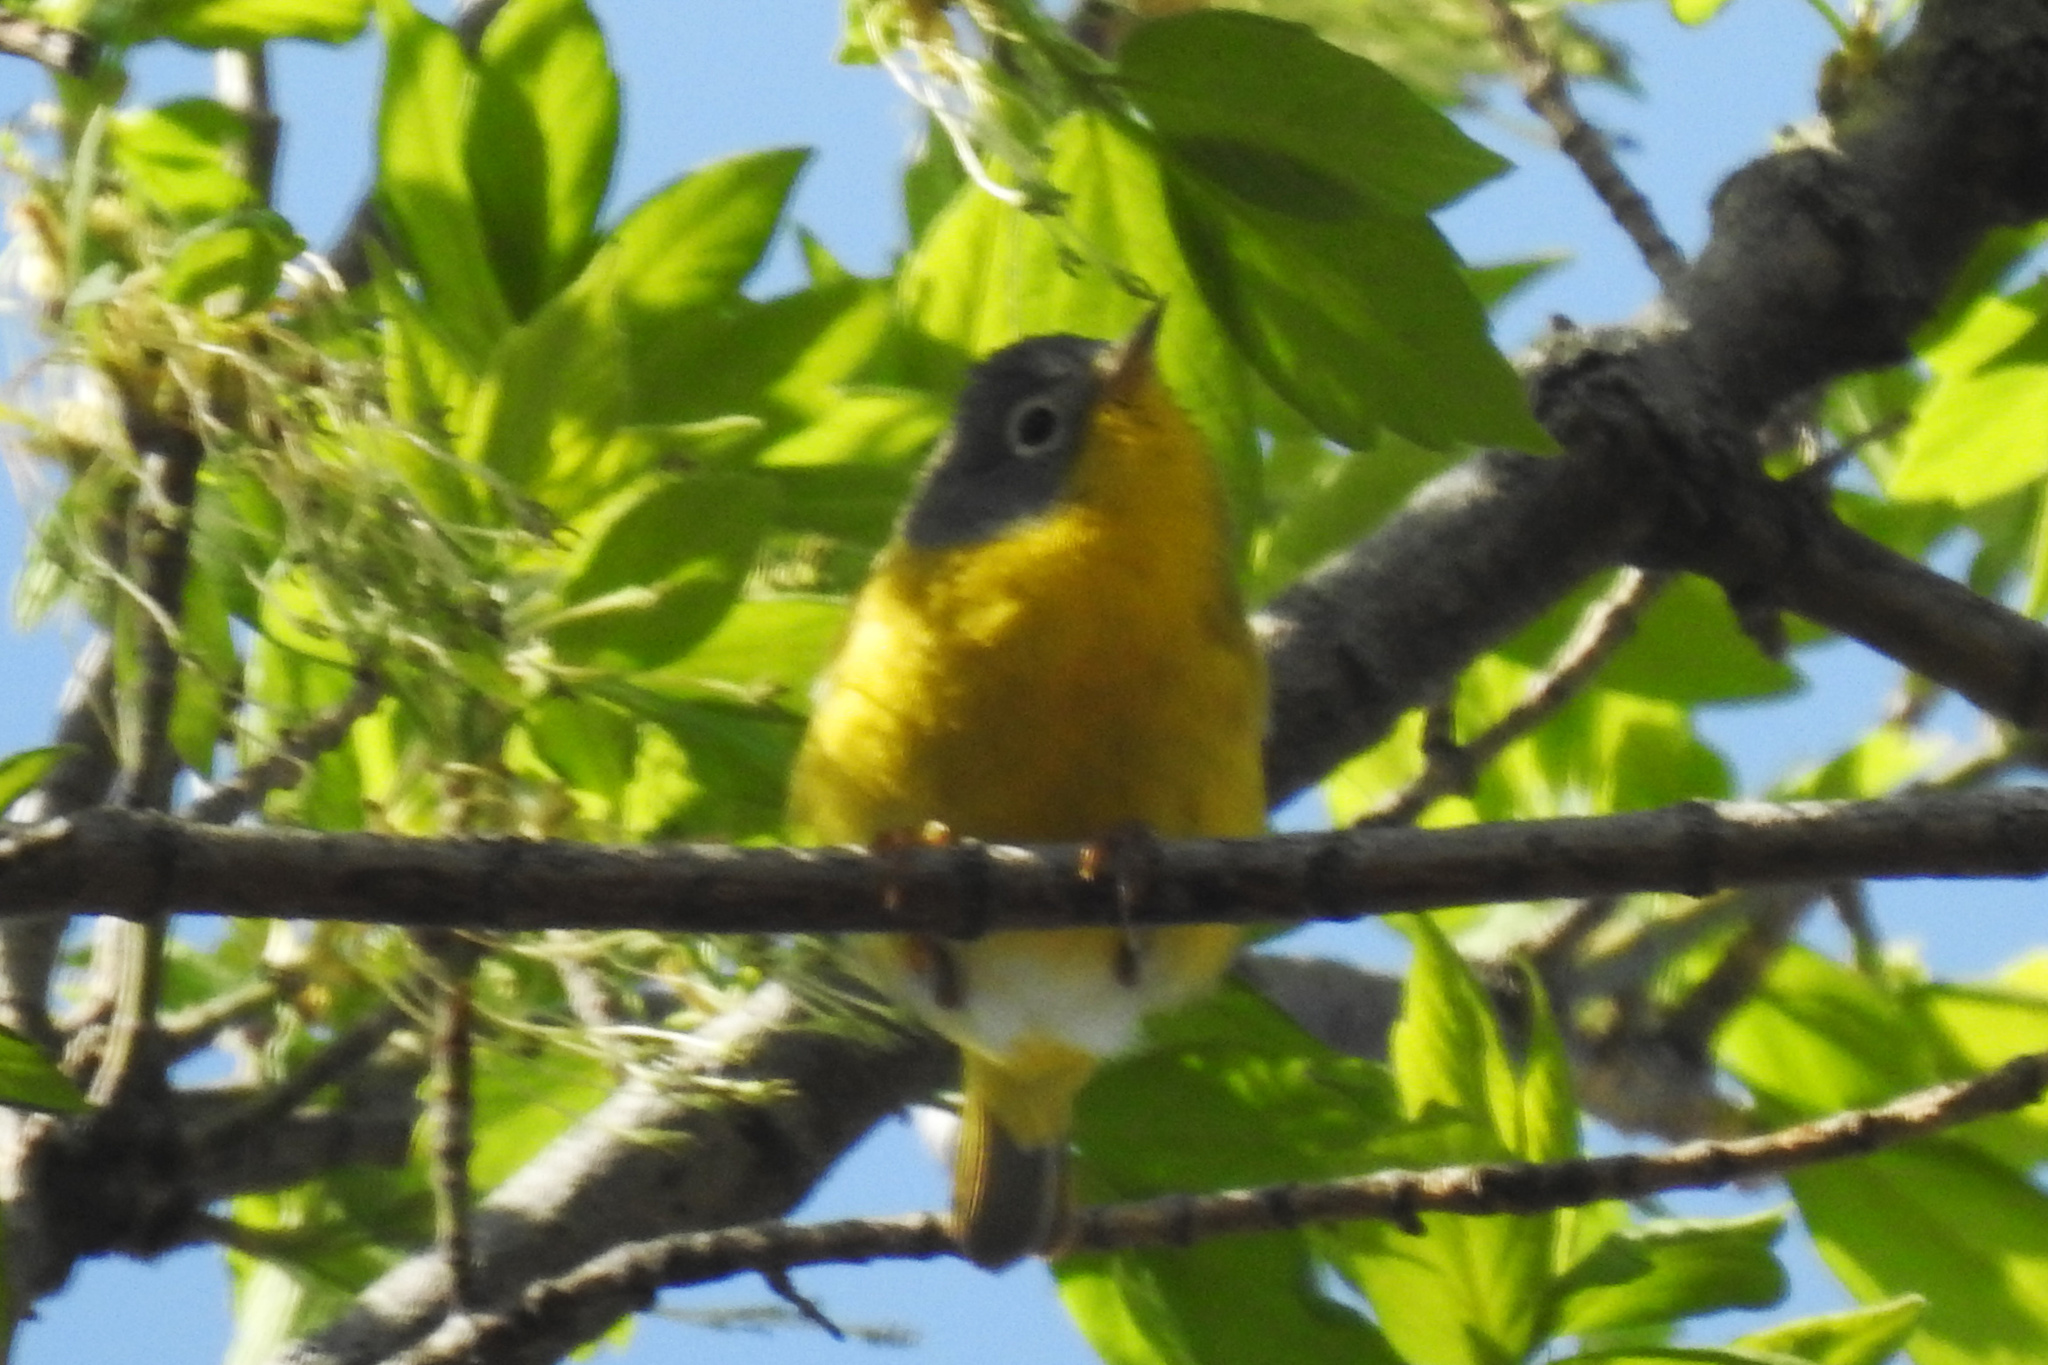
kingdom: Animalia
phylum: Chordata
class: Aves
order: Passeriformes
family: Parulidae
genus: Leiothlypis
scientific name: Leiothlypis ruficapilla
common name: Nashville warbler
